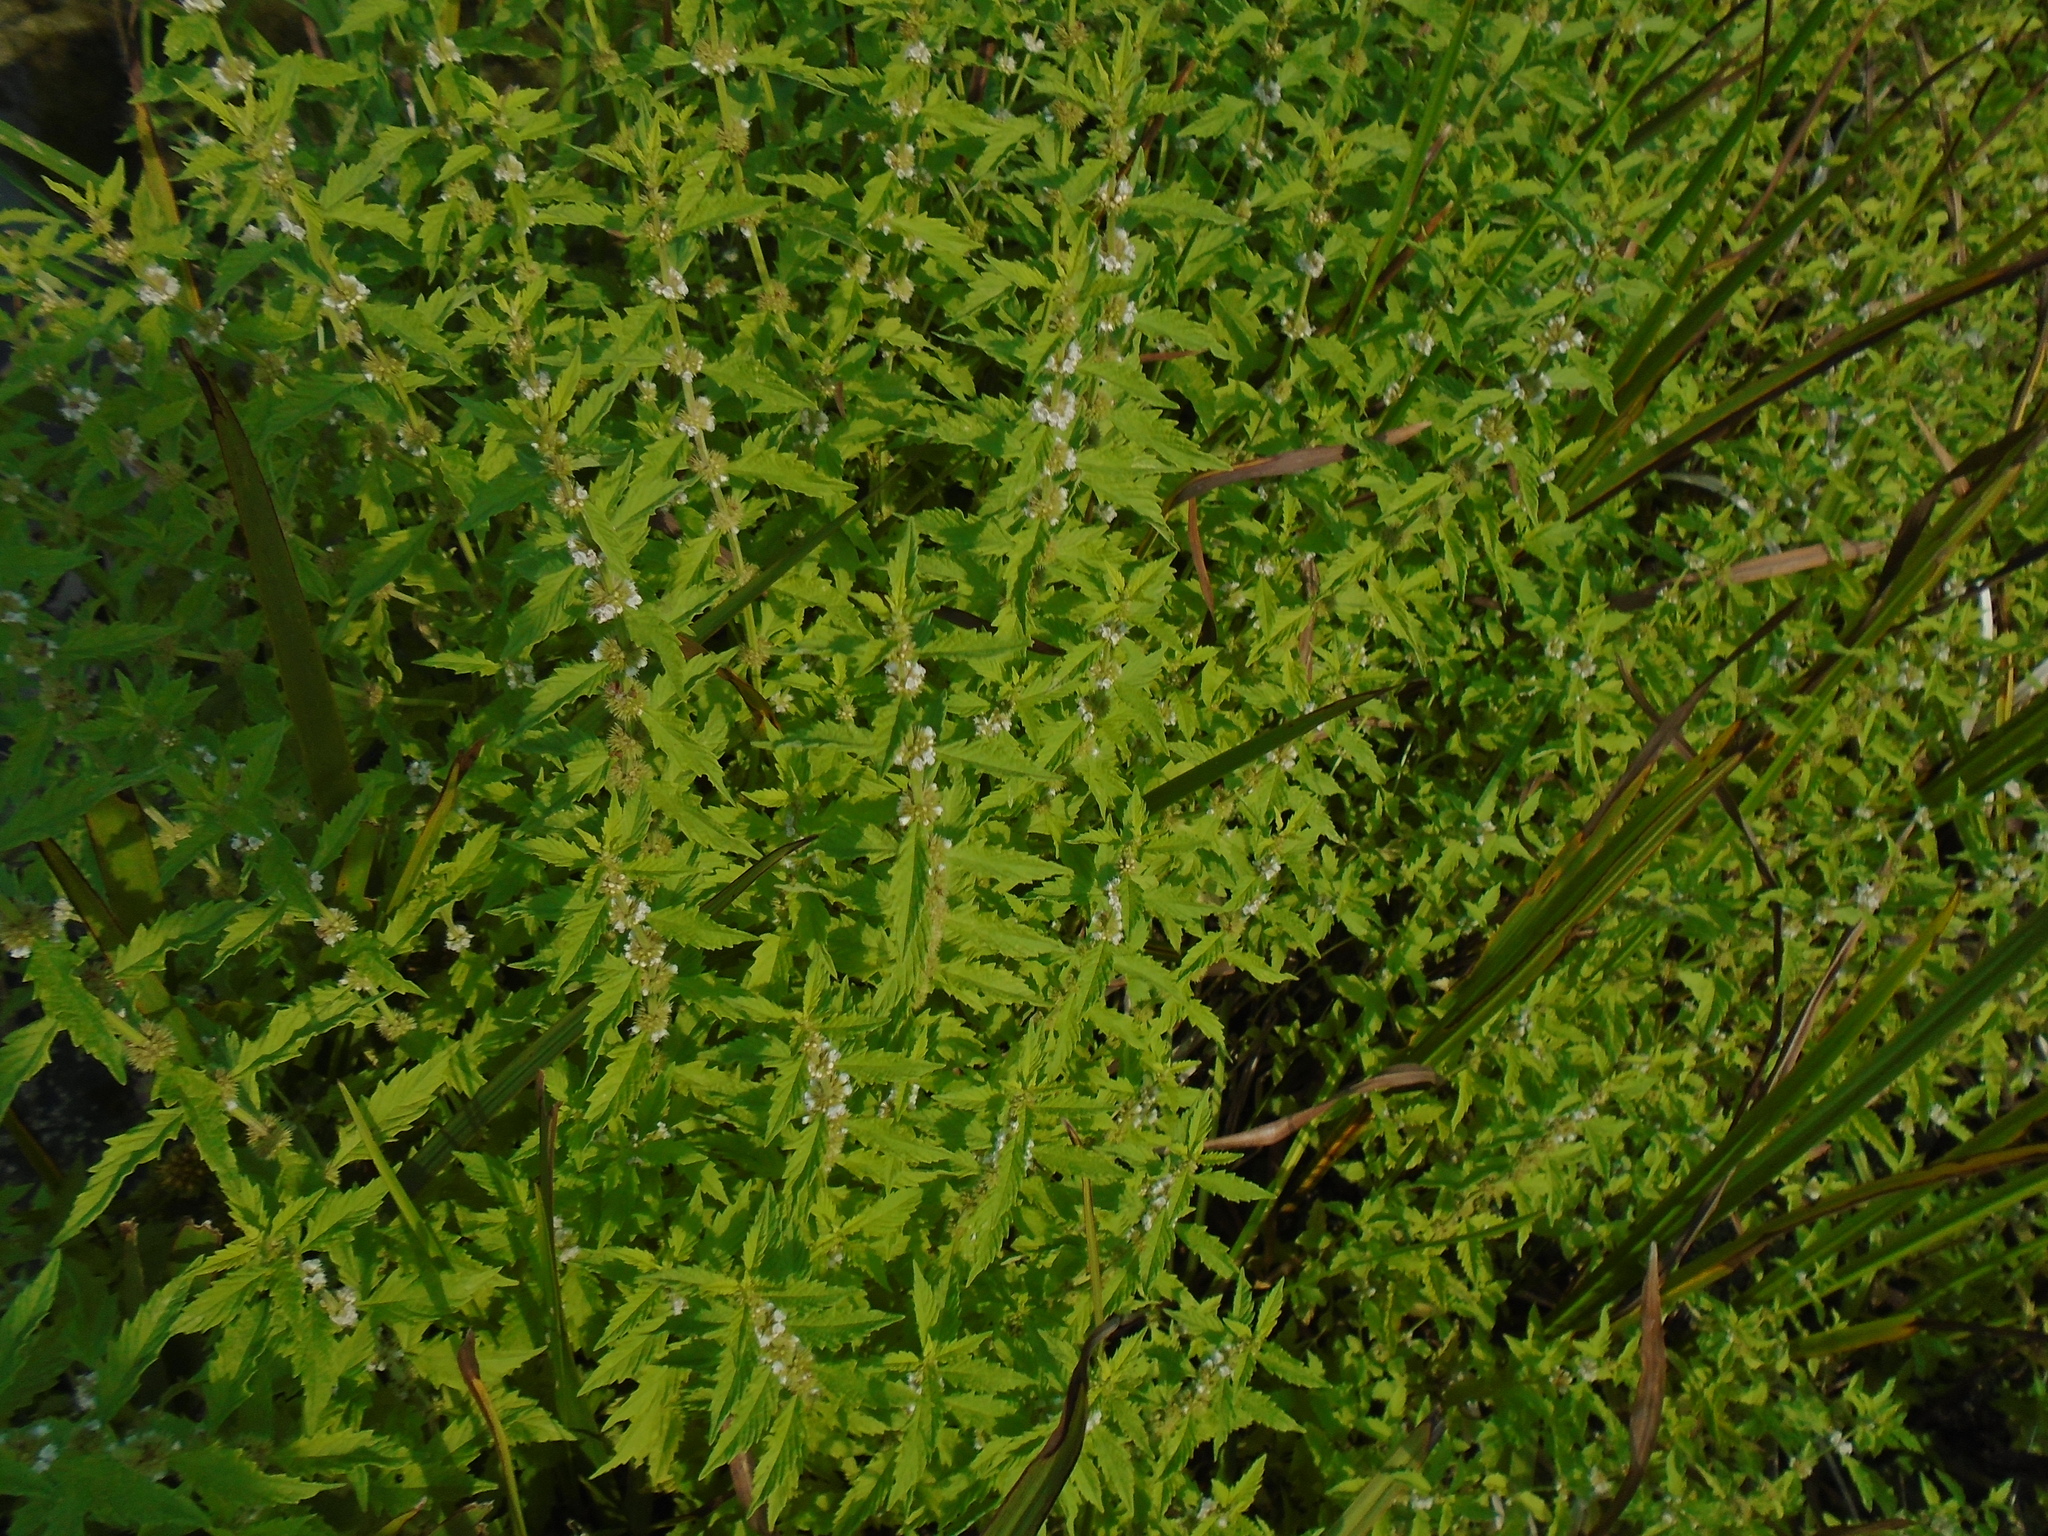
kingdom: Plantae
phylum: Tracheophyta
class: Magnoliopsida
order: Lamiales
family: Lamiaceae
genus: Lycopus
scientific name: Lycopus europaeus
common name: European bugleweed
